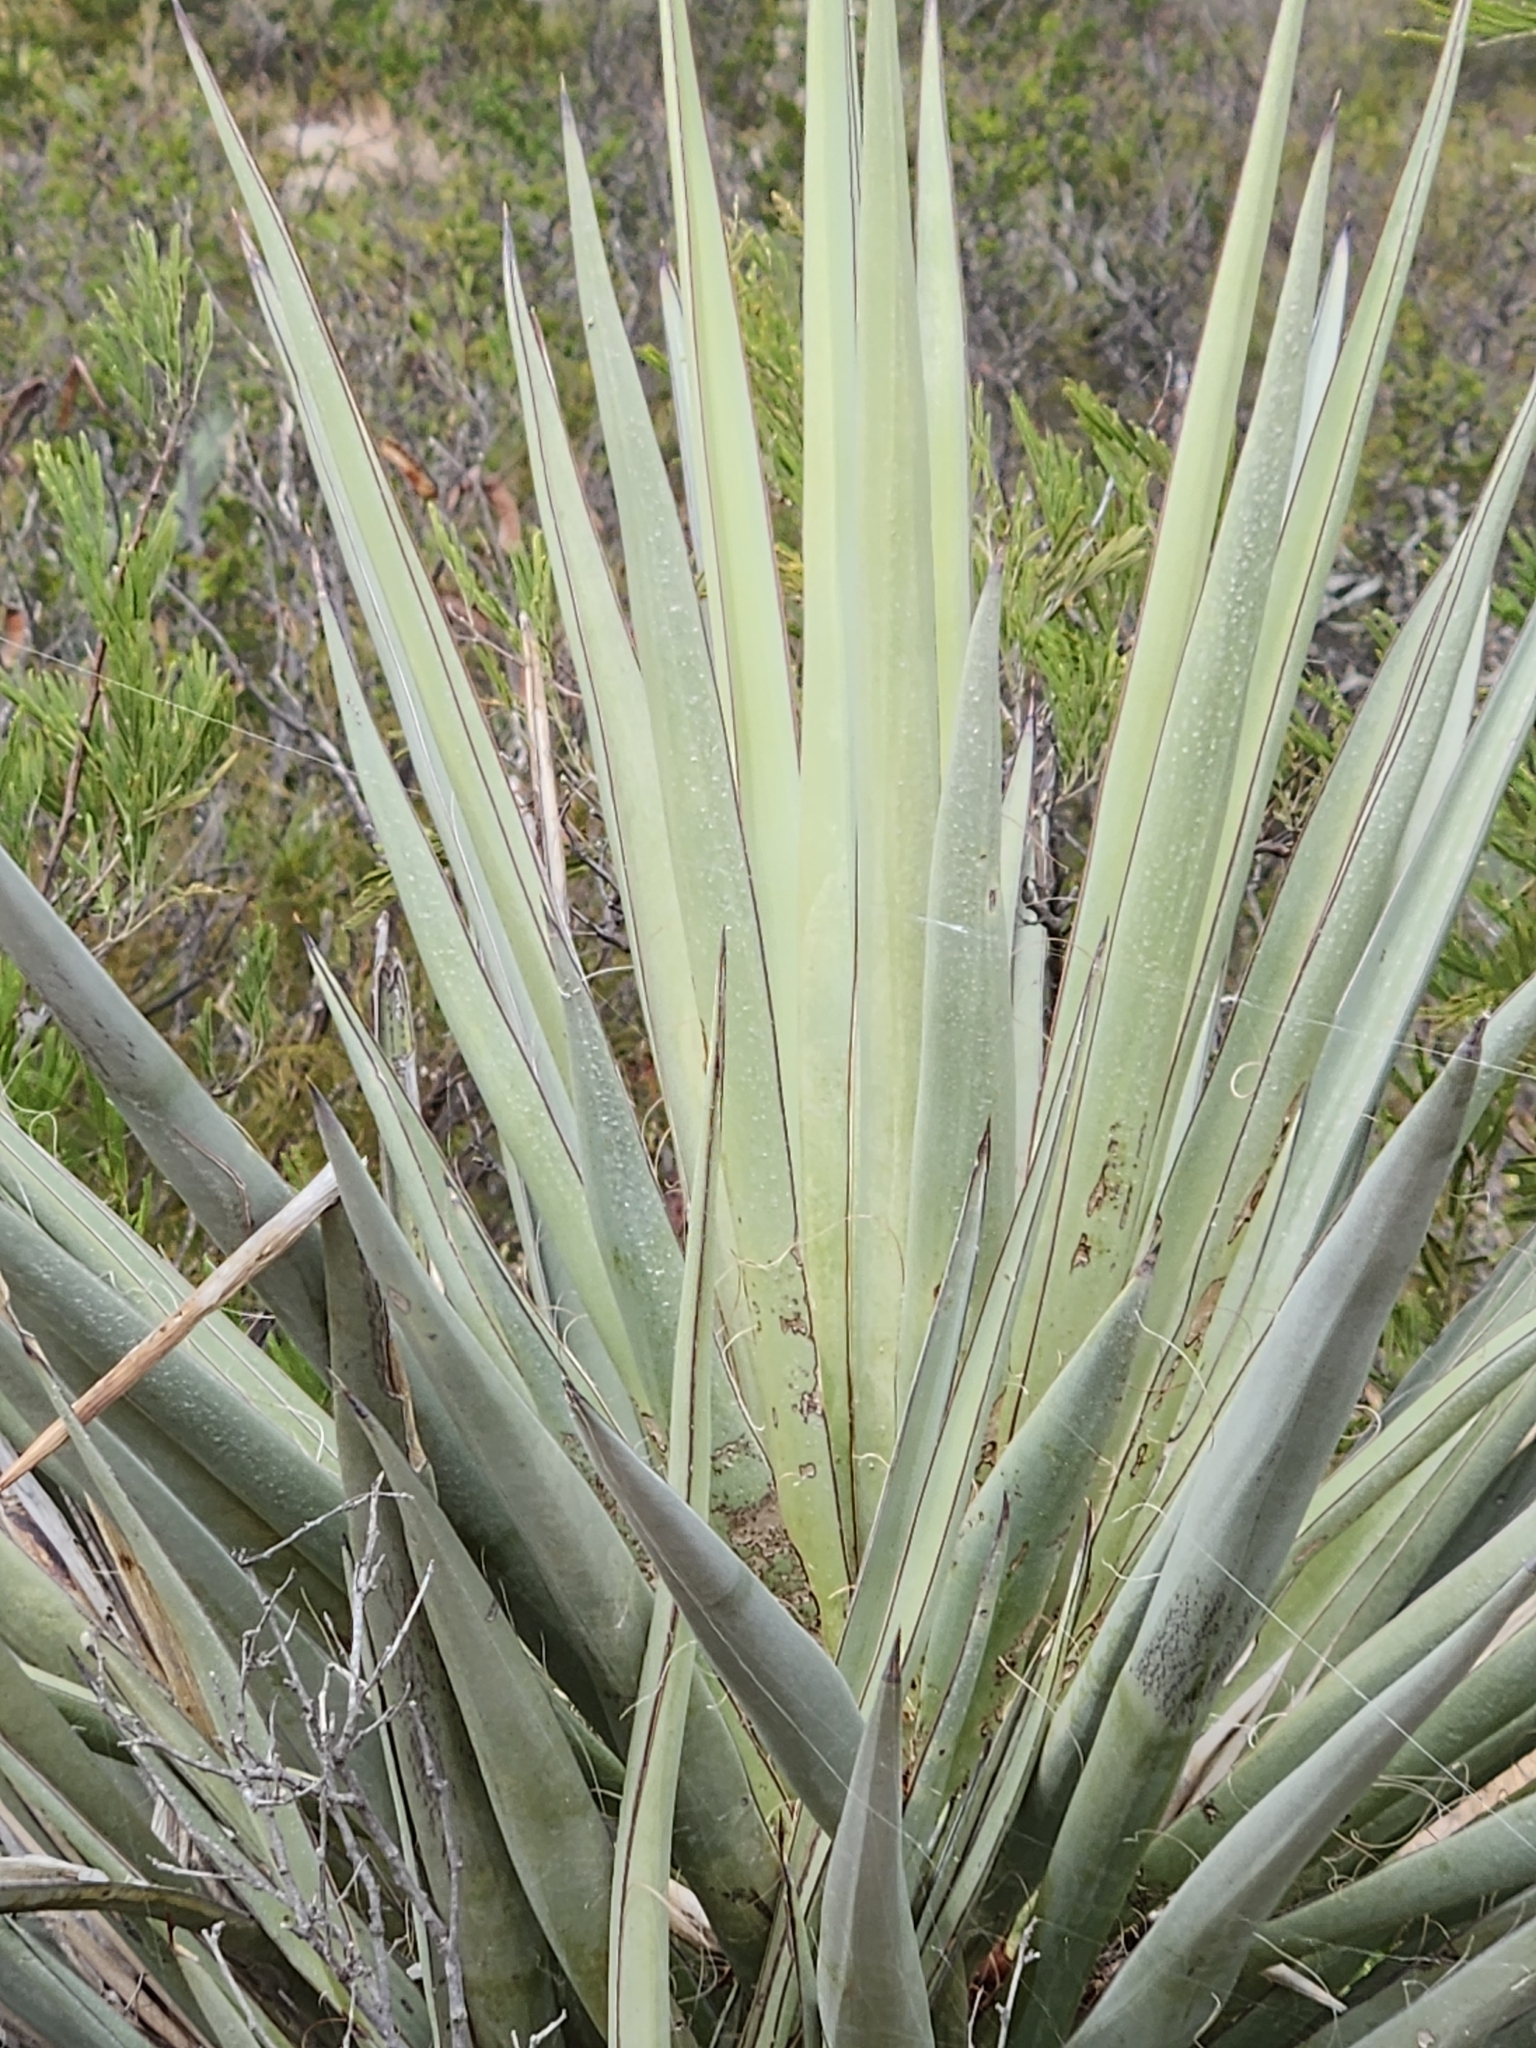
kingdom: Plantae
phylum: Tracheophyta
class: Liliopsida
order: Asparagales
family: Asparagaceae
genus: Yucca
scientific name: Yucca treculiana
